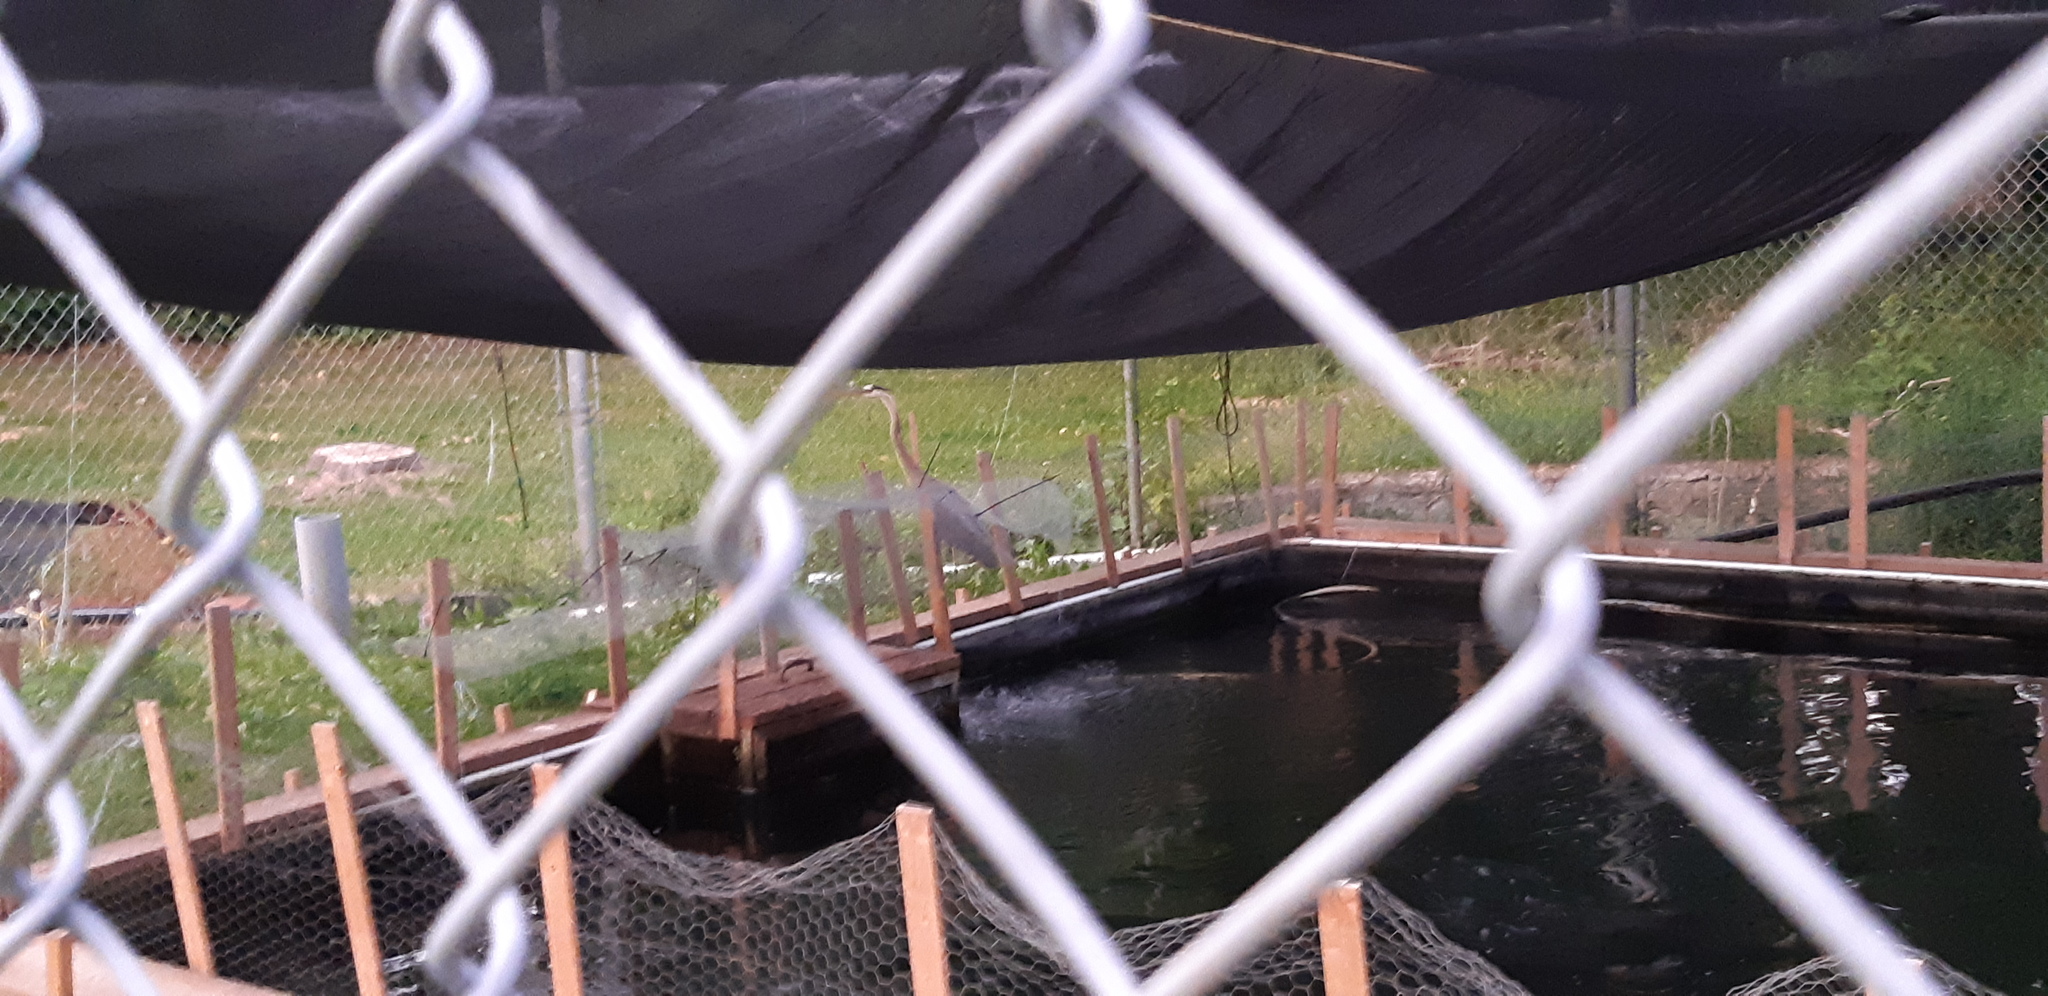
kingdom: Animalia
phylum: Chordata
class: Aves
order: Pelecaniformes
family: Ardeidae
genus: Ardea
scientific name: Ardea herodias
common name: Great blue heron
